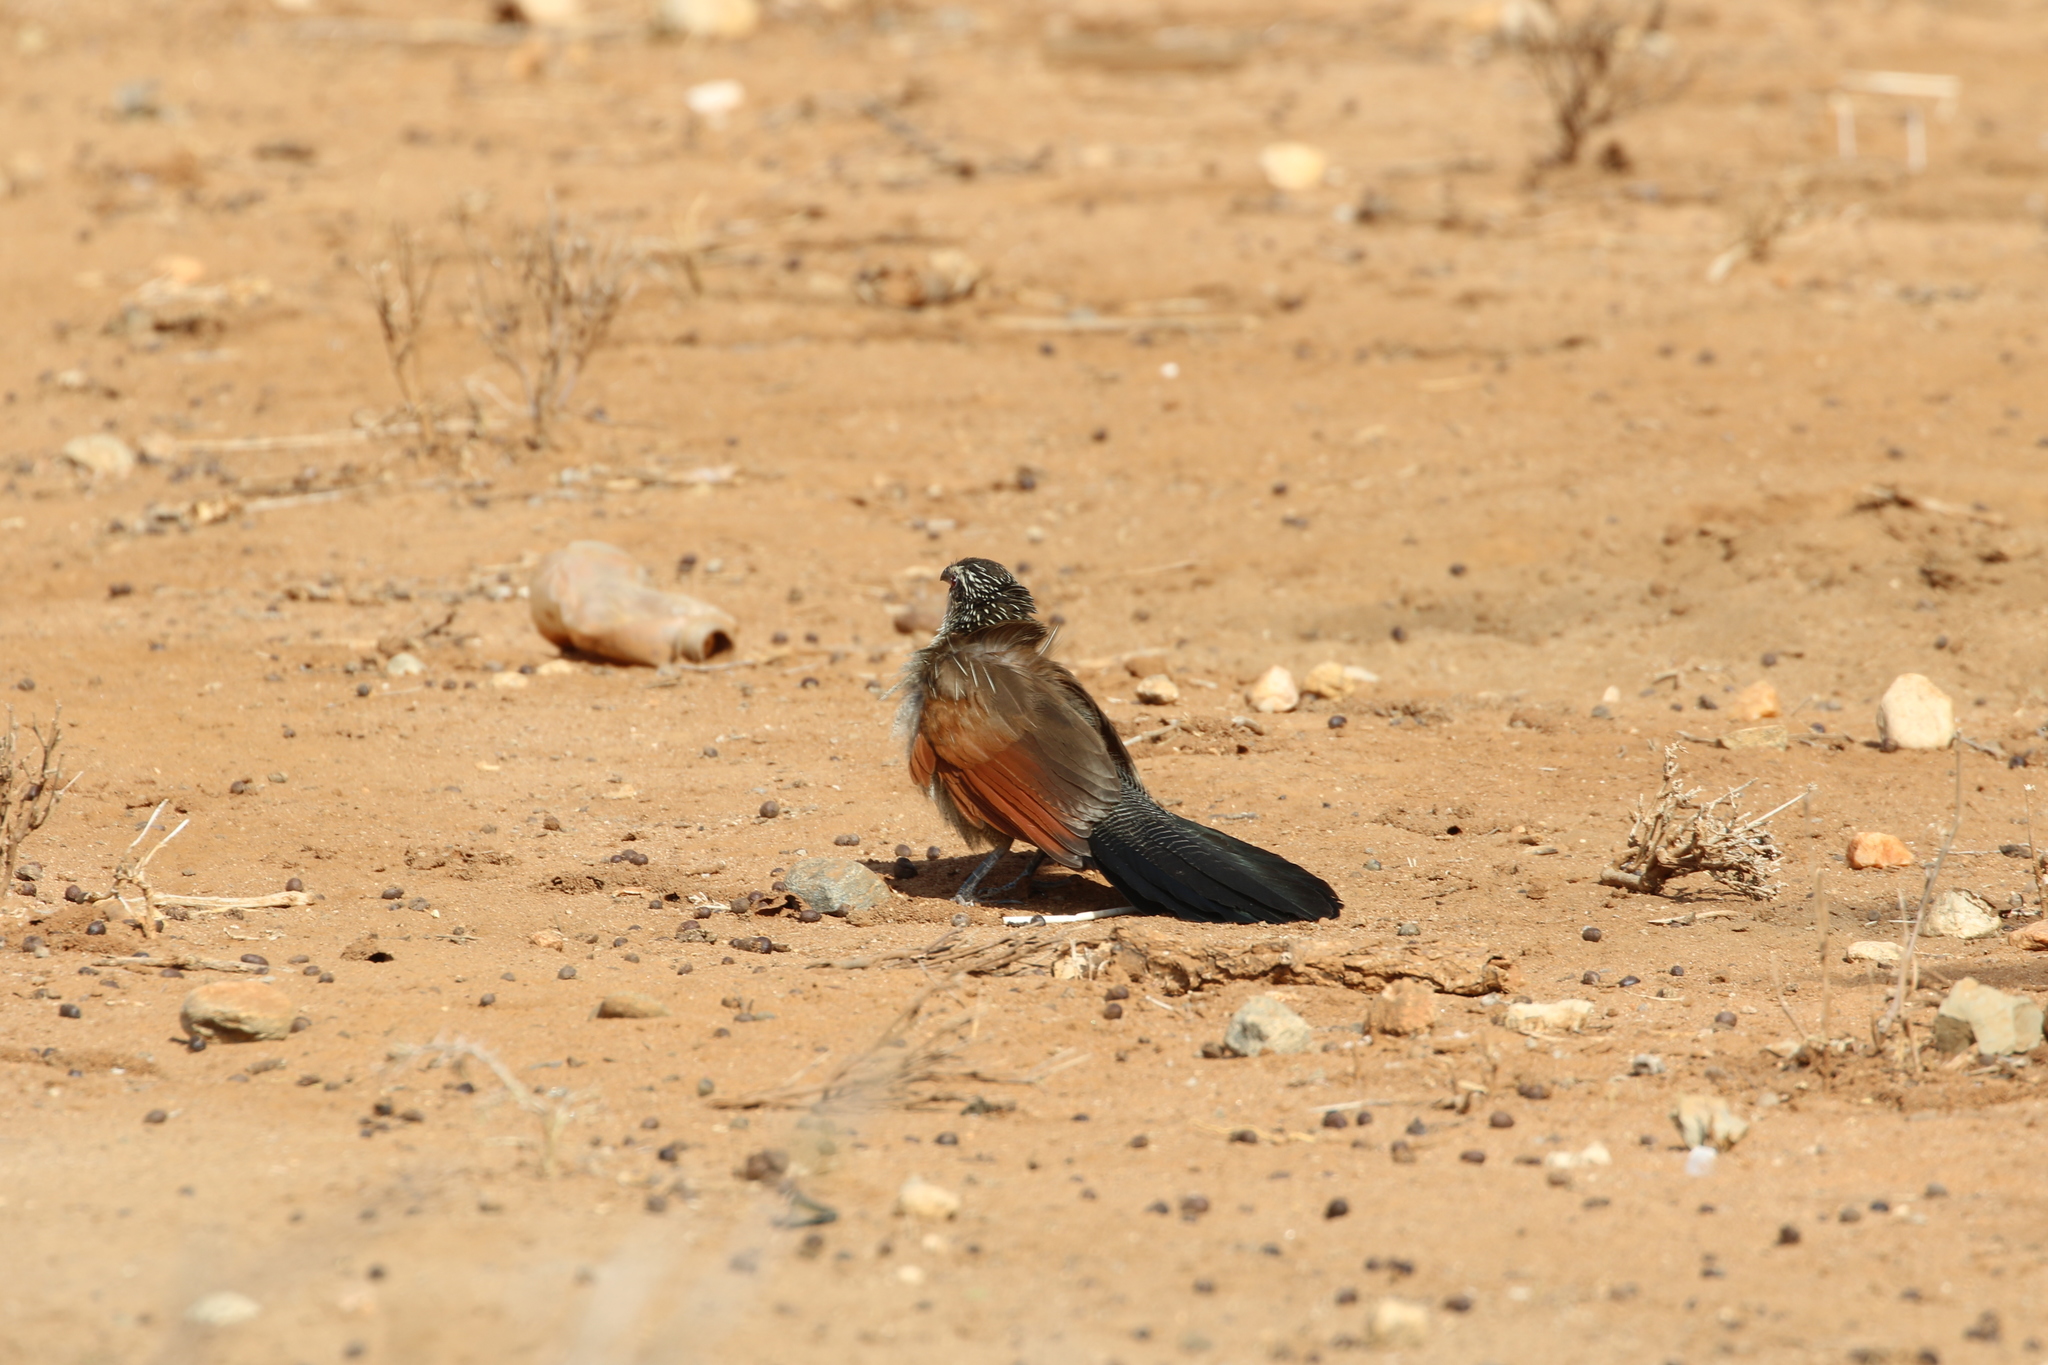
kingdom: Animalia
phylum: Chordata
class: Aves
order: Cuculiformes
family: Cuculidae
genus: Centropus
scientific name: Centropus superciliosus
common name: White-browed coucal
